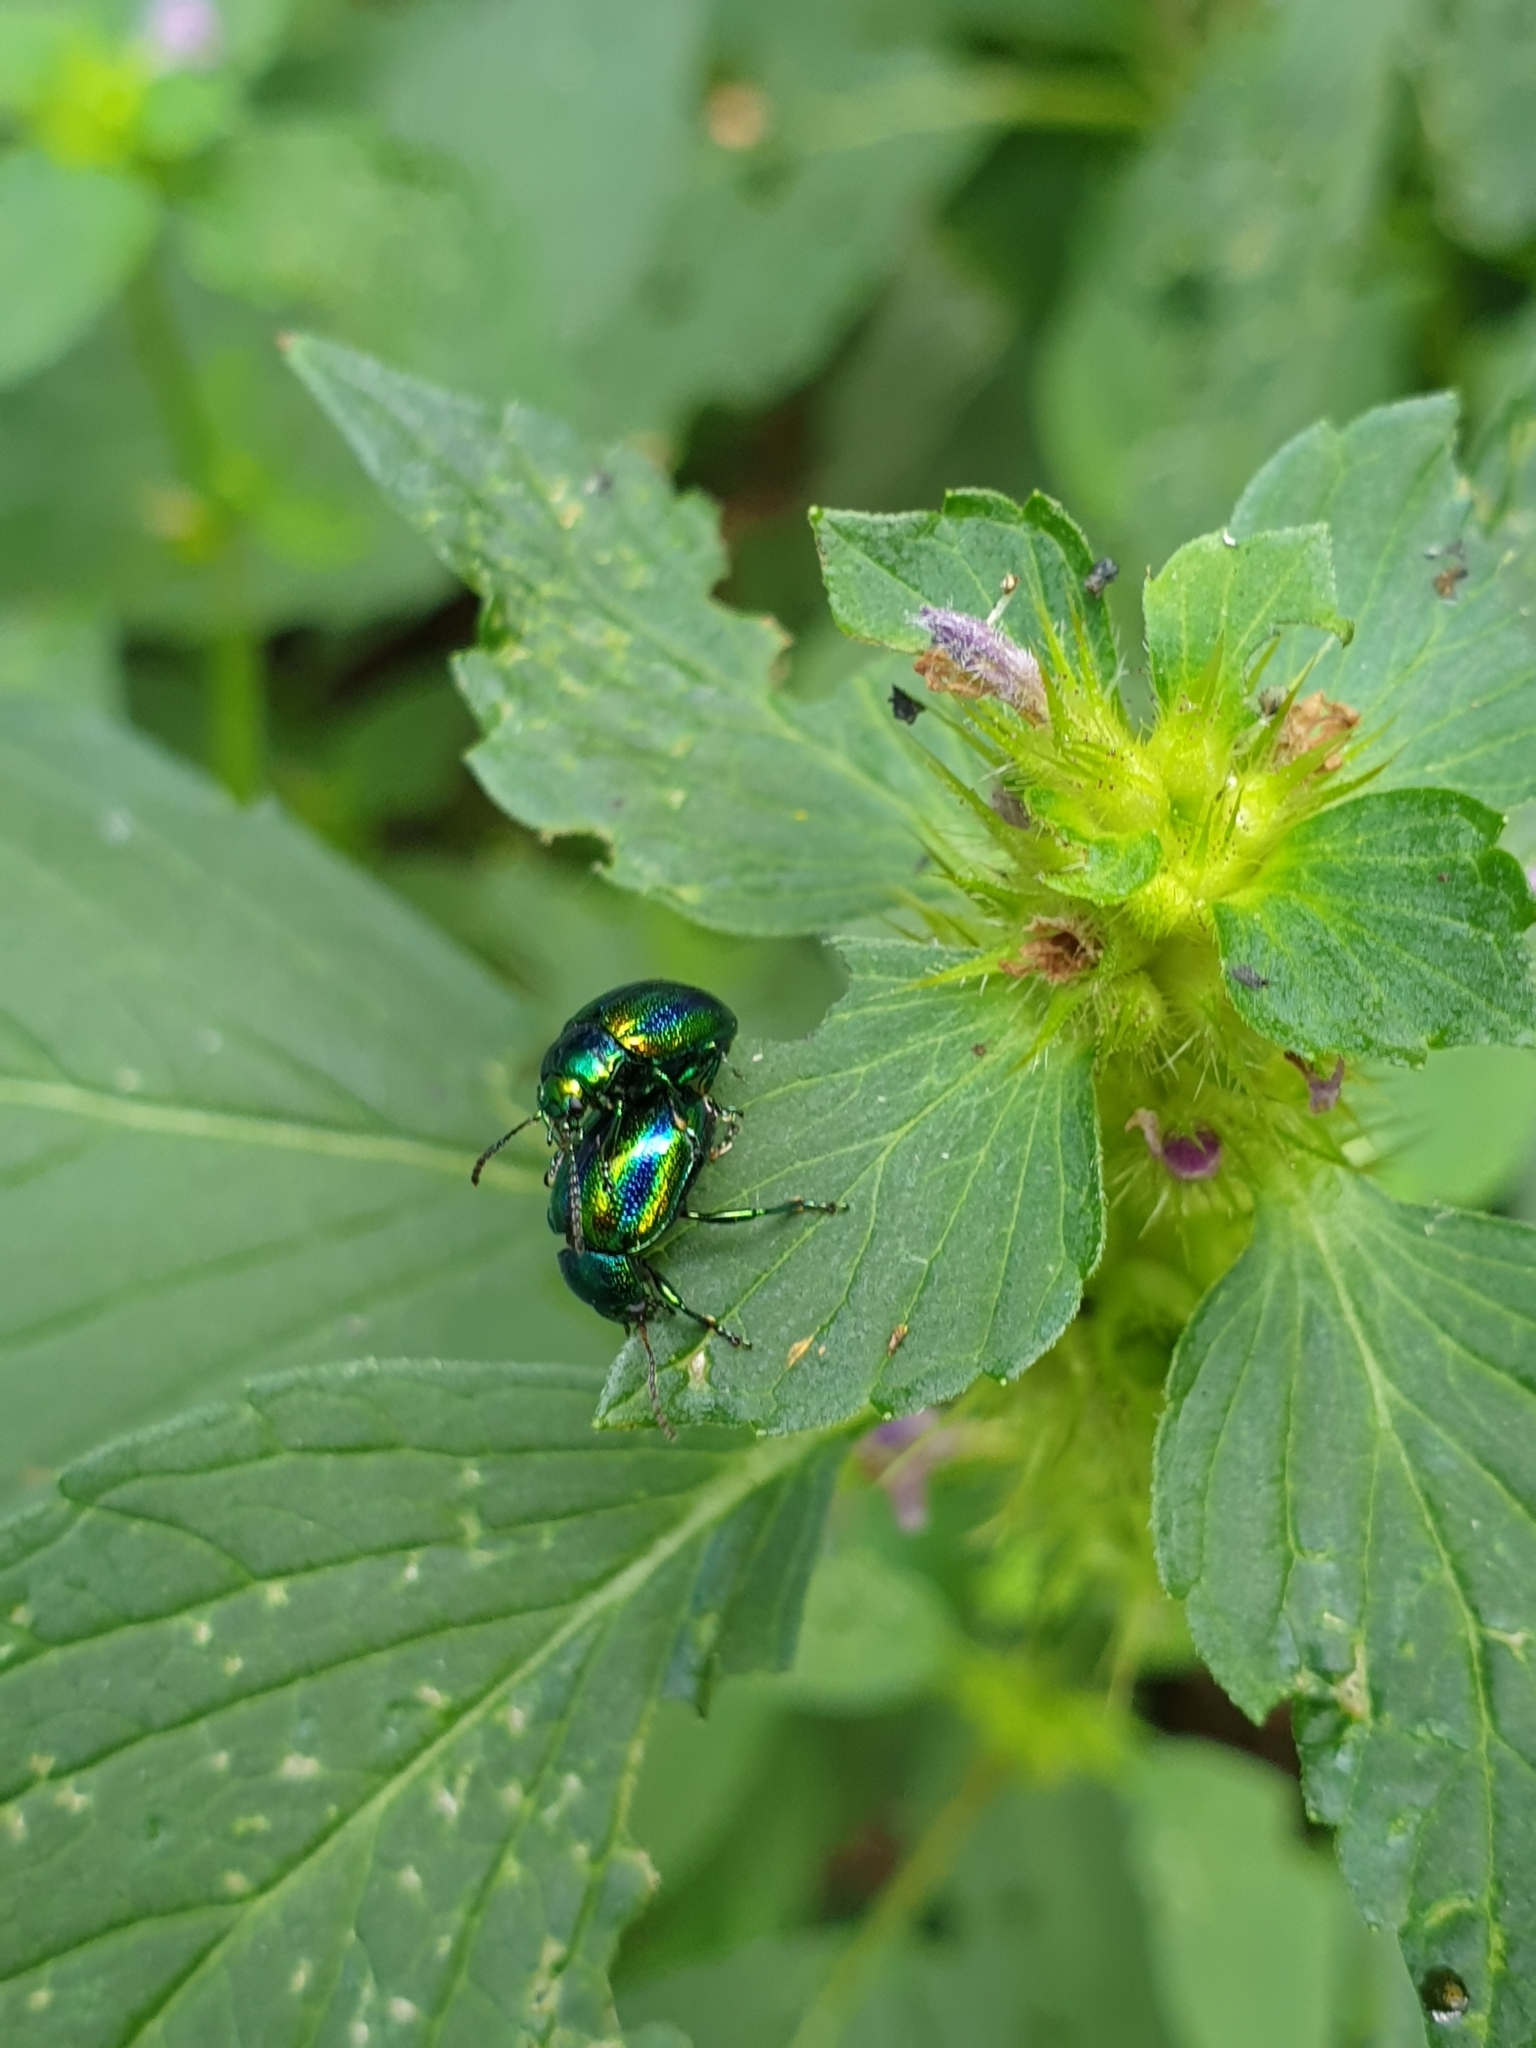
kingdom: Animalia
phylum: Arthropoda
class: Insecta
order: Coleoptera
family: Chrysomelidae
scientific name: Chrysomelidae
